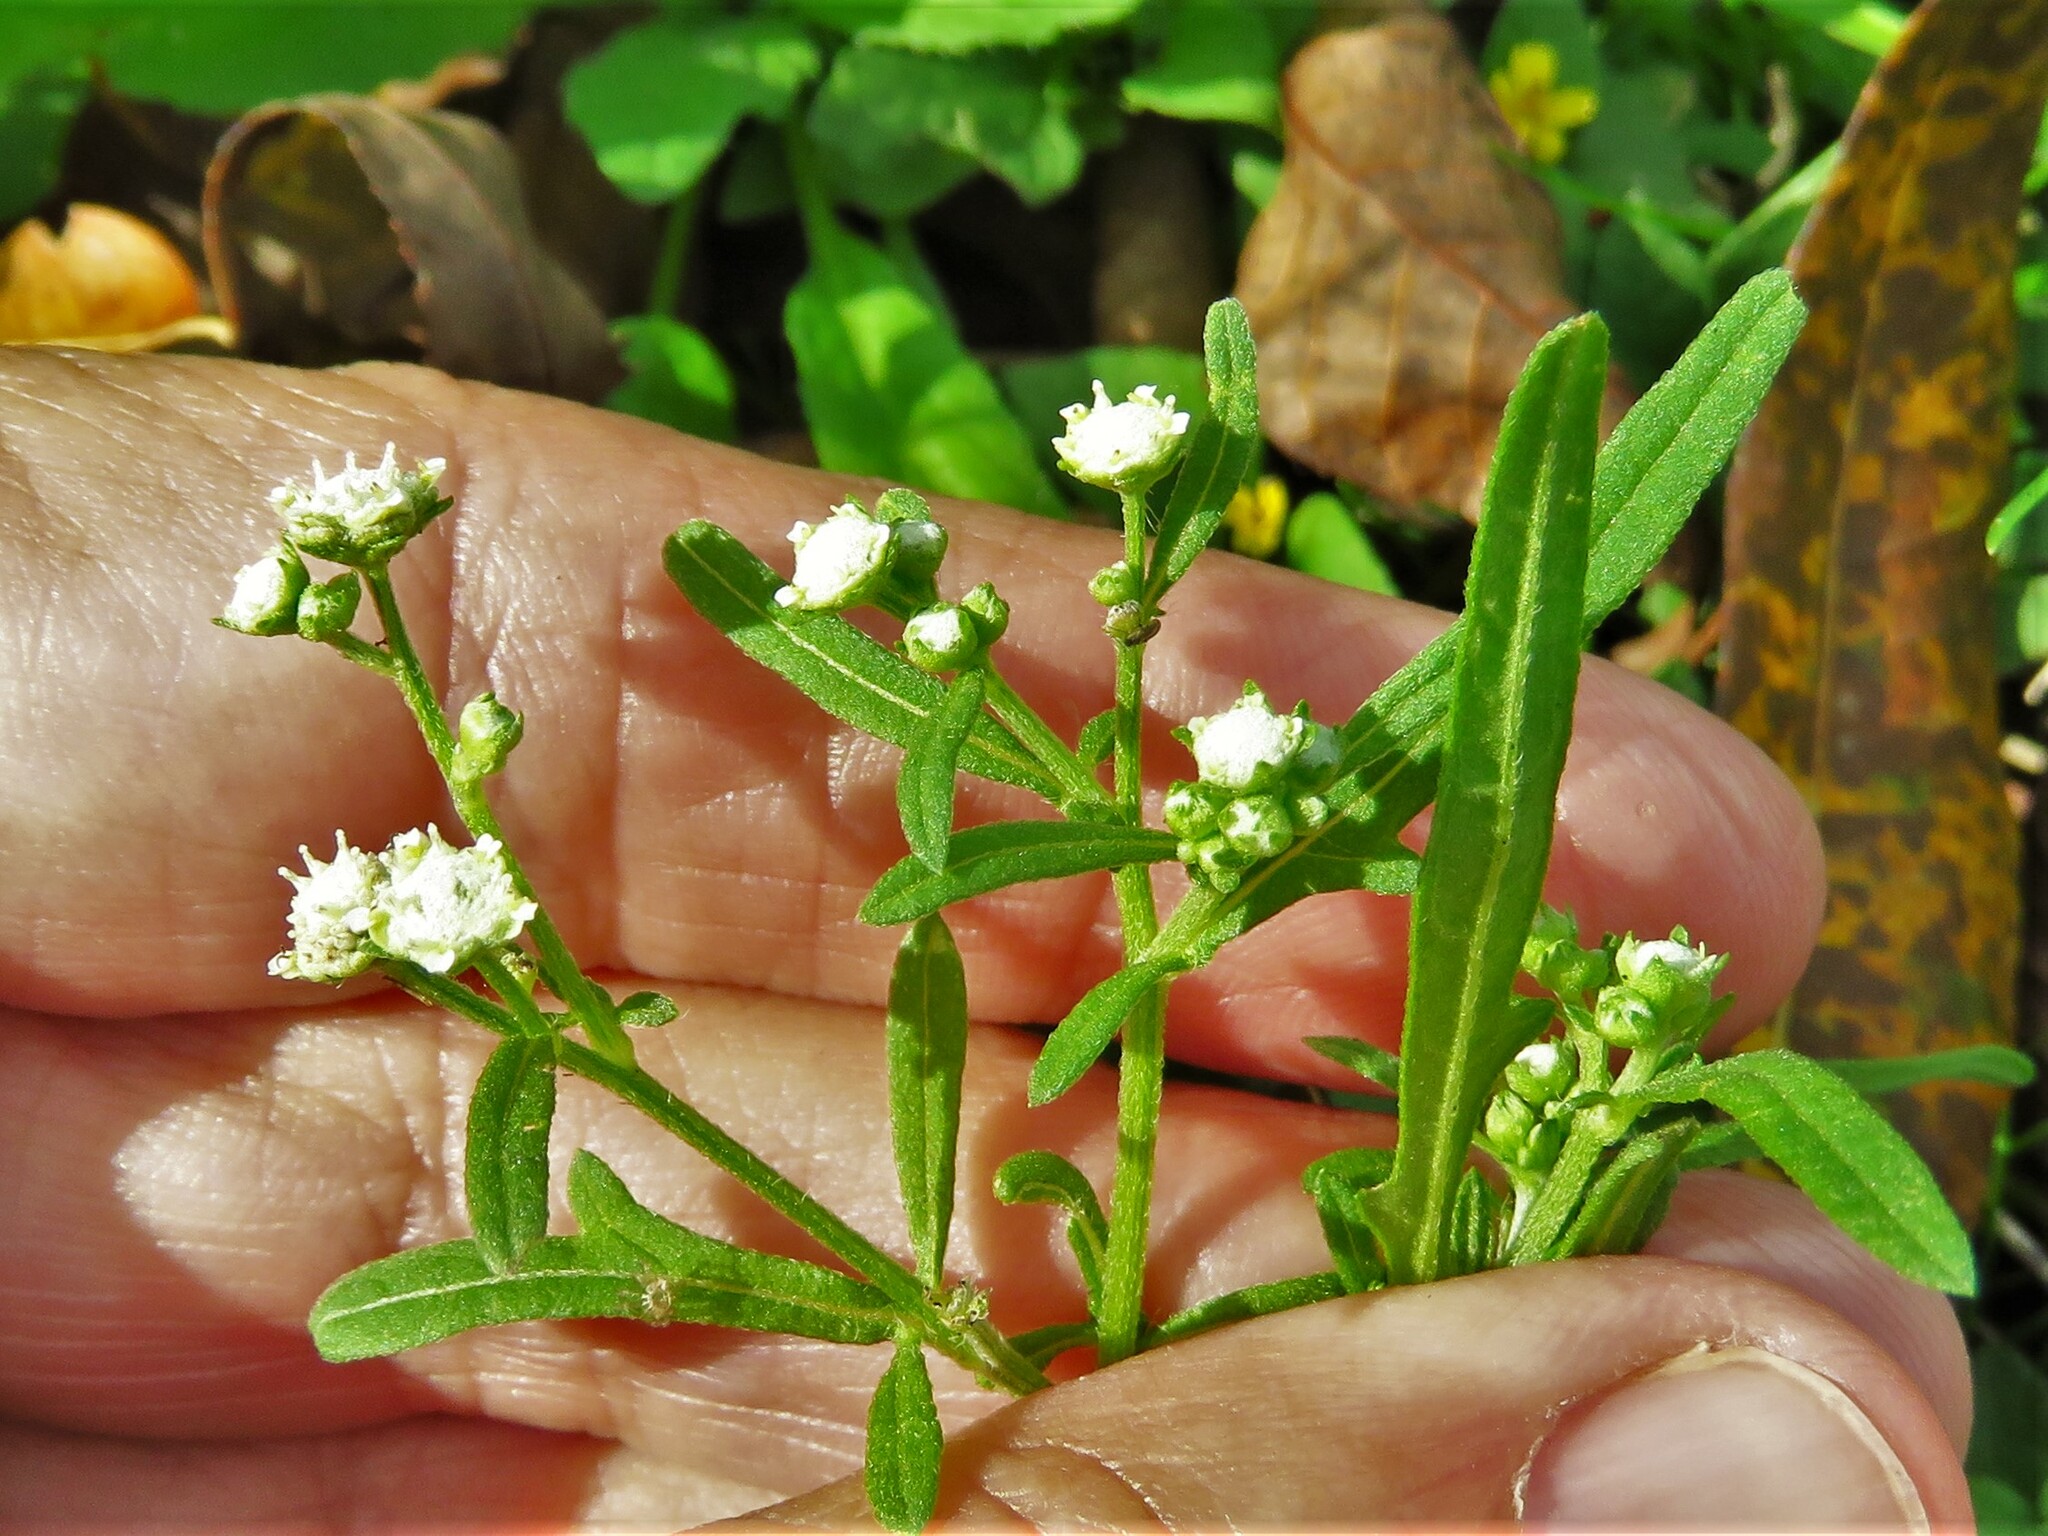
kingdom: Plantae
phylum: Tracheophyta
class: Magnoliopsida
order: Asterales
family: Asteraceae
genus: Parthenium
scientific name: Parthenium hysterophorus
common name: Santa maria feverfew
